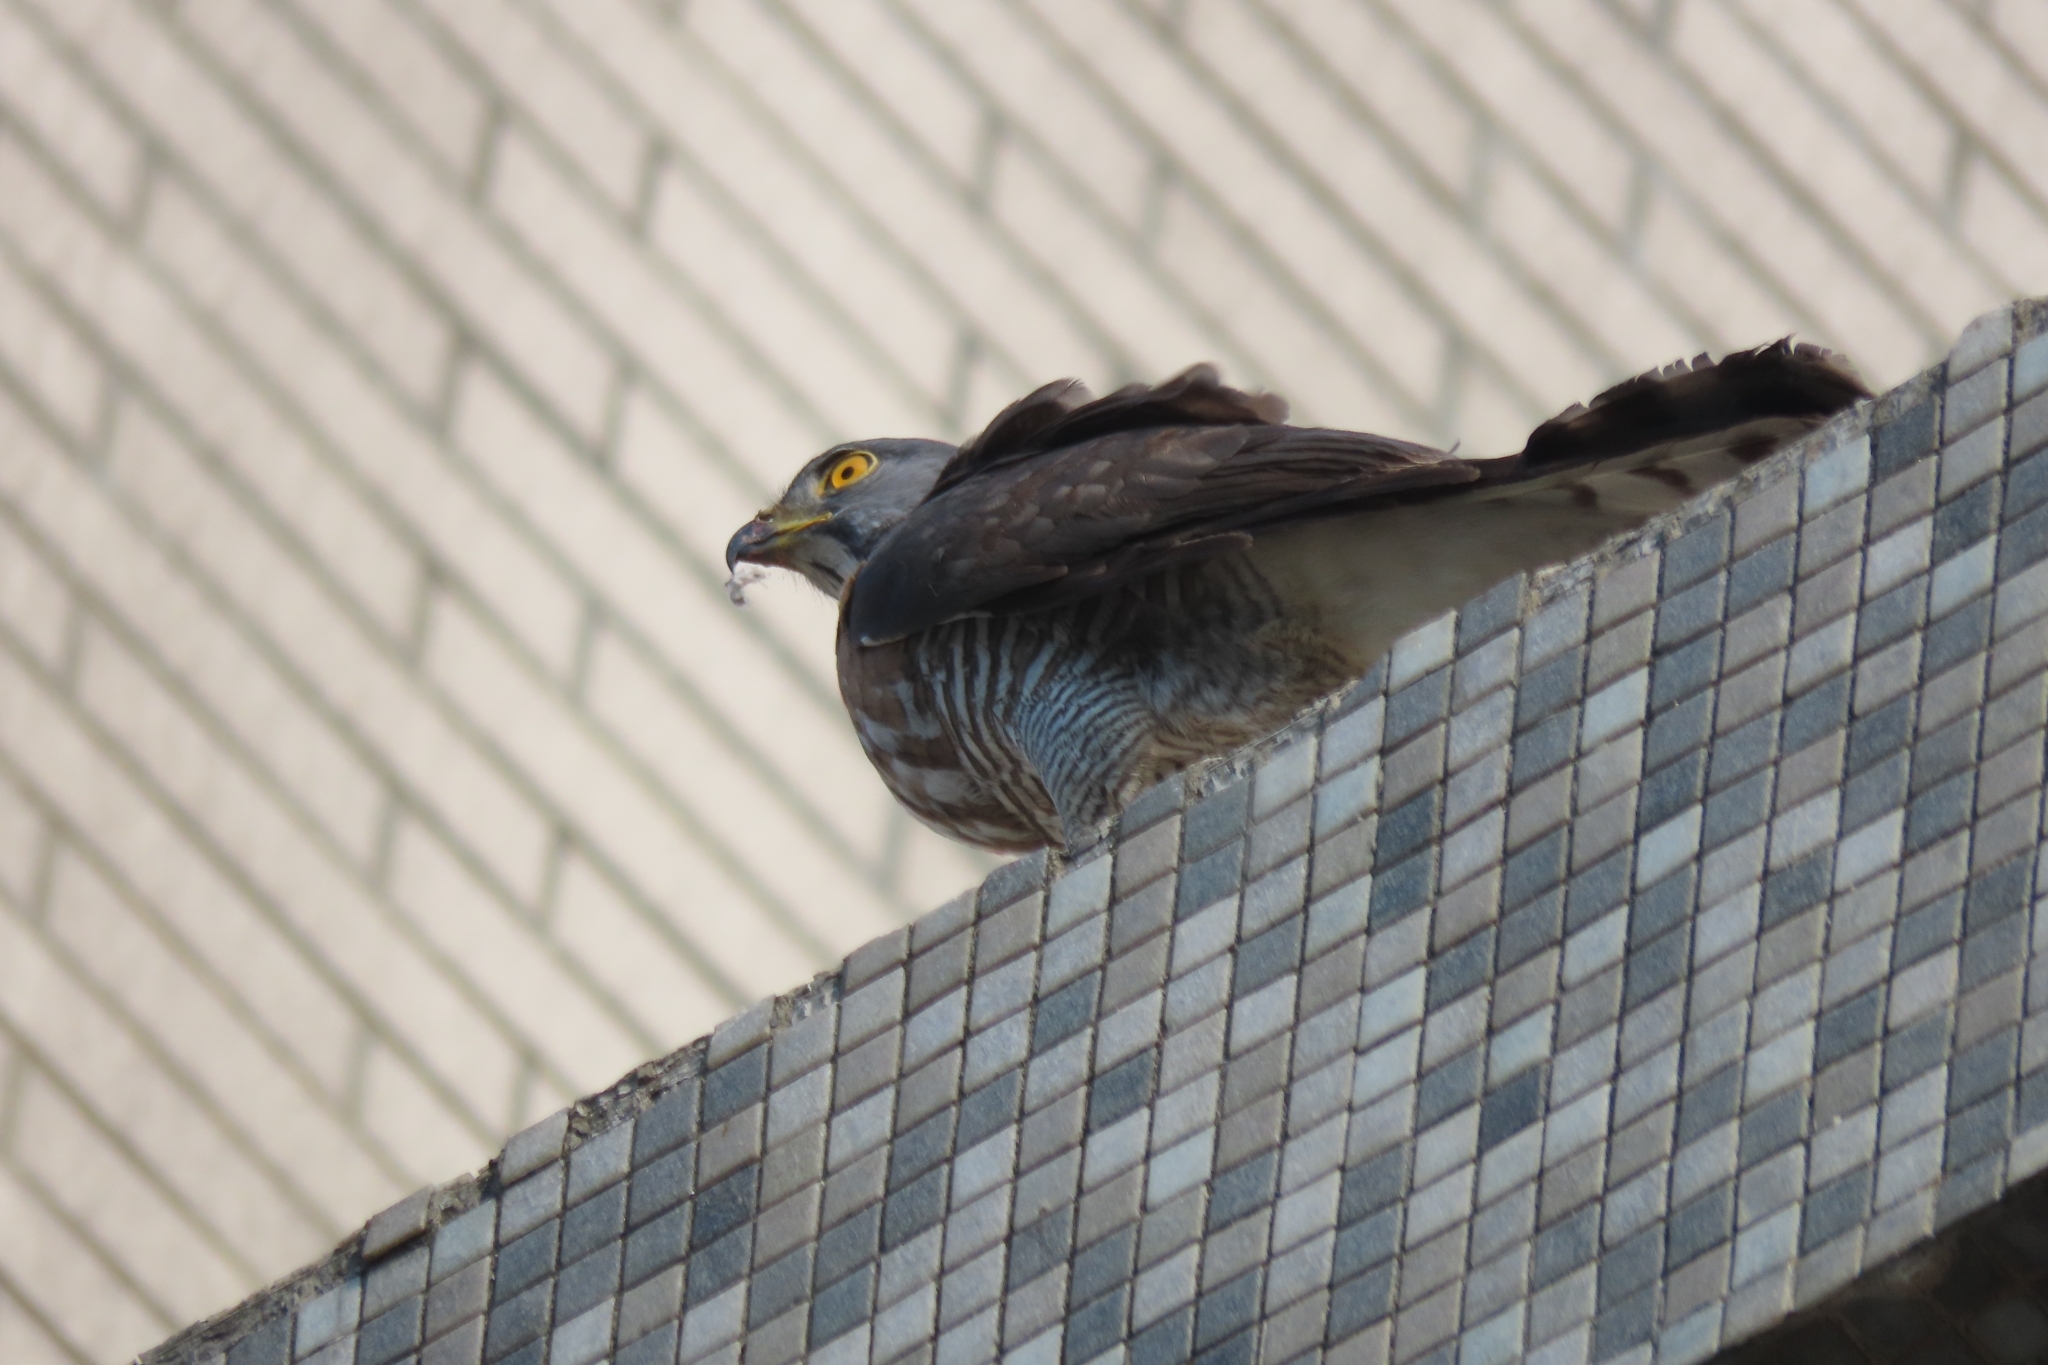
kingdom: Animalia
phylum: Chordata
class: Aves
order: Accipitriformes
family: Accipitridae
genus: Accipiter
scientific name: Accipiter trivirgatus
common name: Crested goshawk
